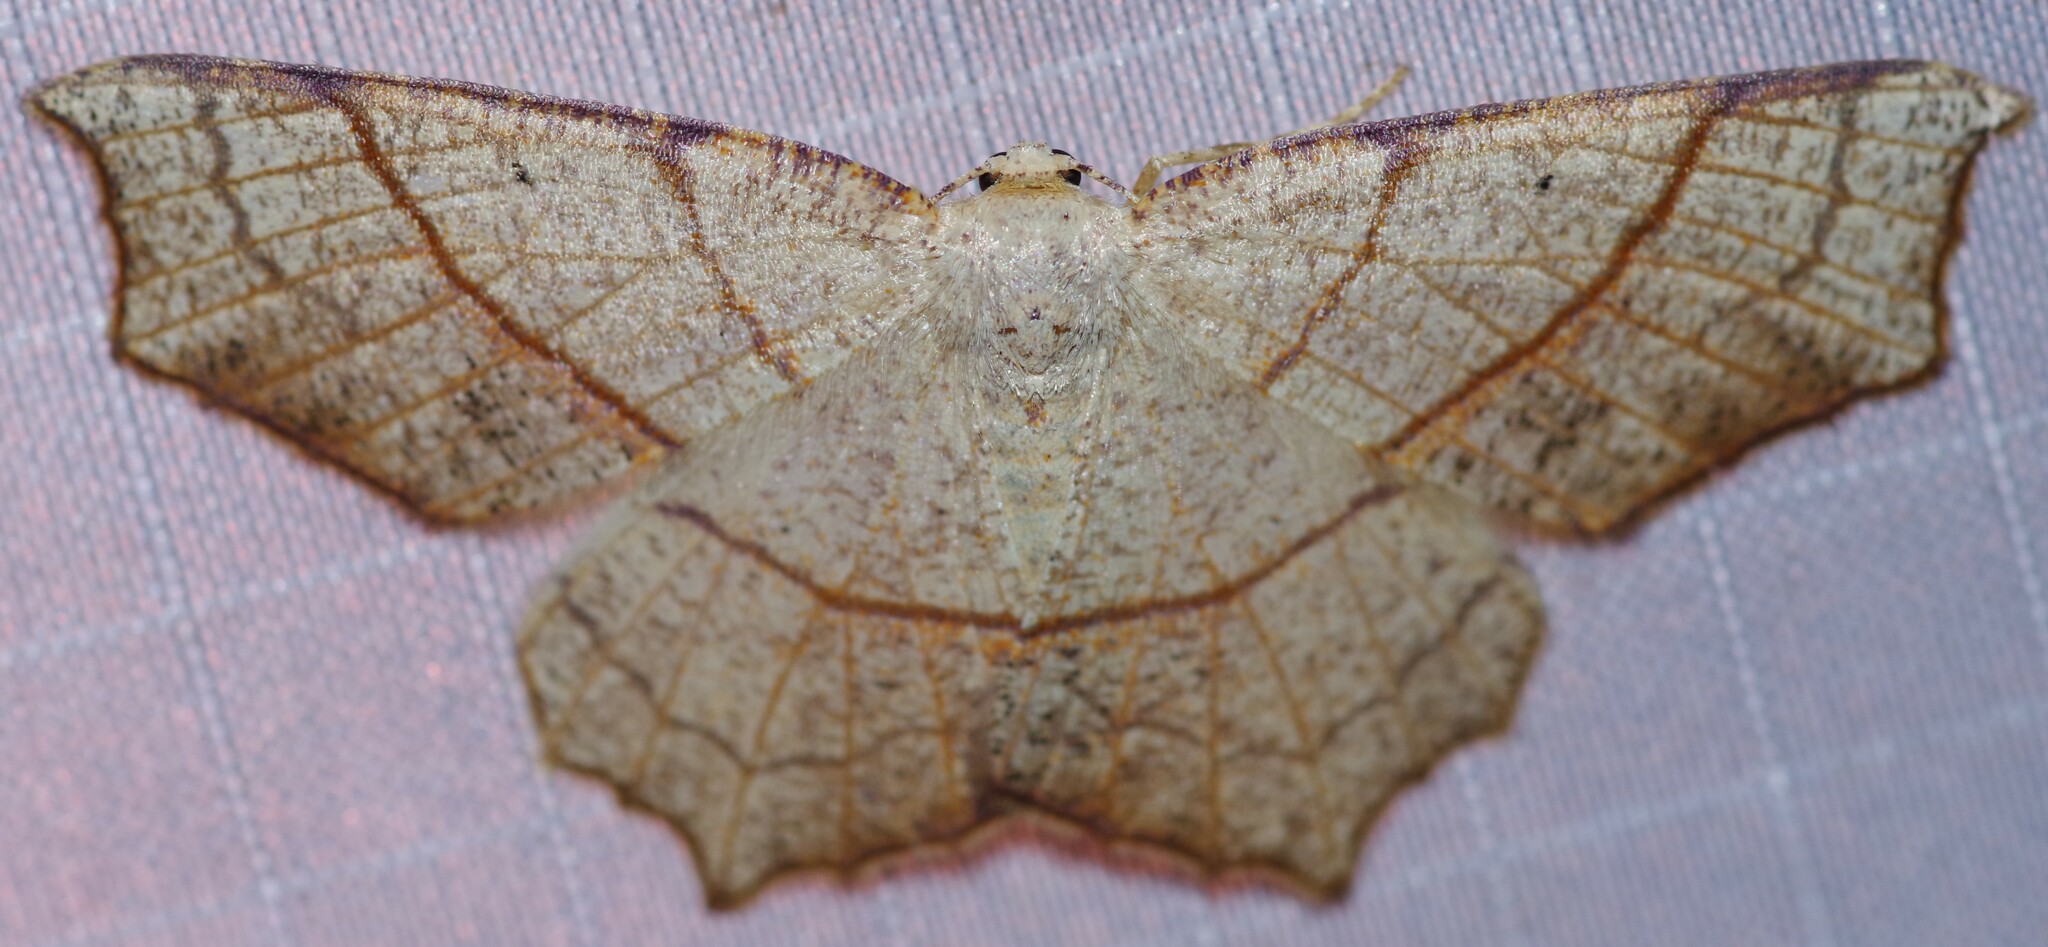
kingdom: Animalia
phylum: Arthropoda
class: Insecta
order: Lepidoptera
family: Geometridae
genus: Besma
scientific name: Besma quercivoraria
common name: Oak besma
